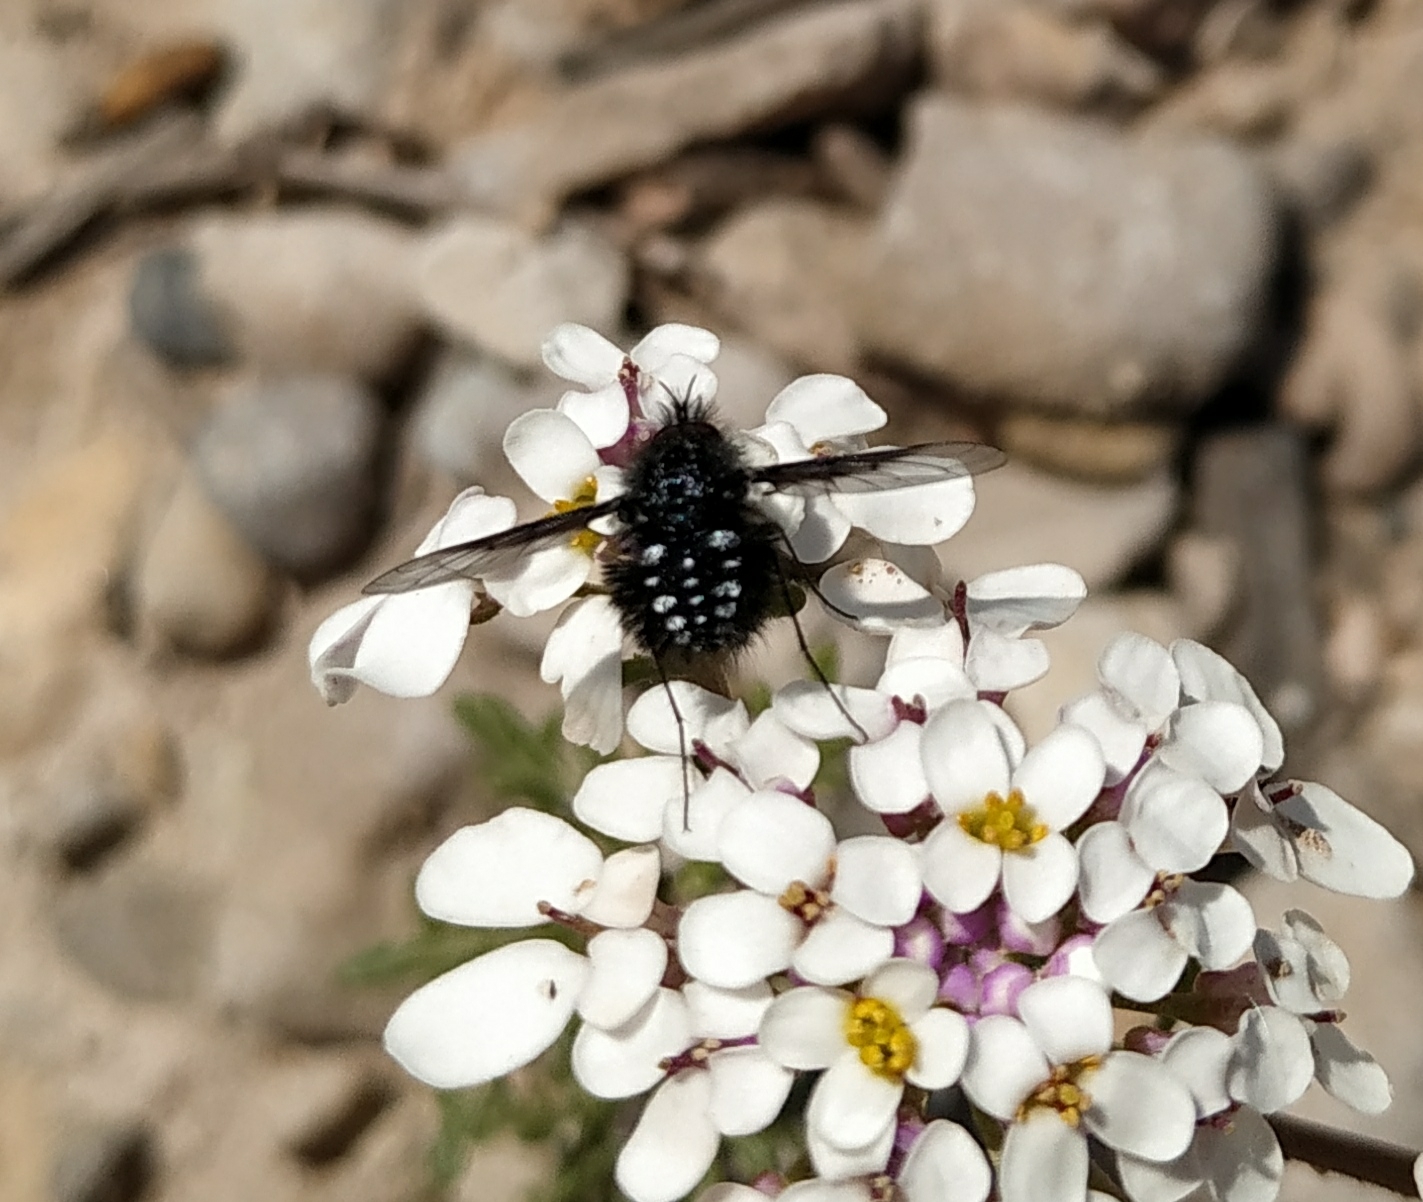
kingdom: Animalia
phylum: Arthropoda
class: Insecta
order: Diptera
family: Bombyliidae
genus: Bombylella
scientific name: Bombylella atra
